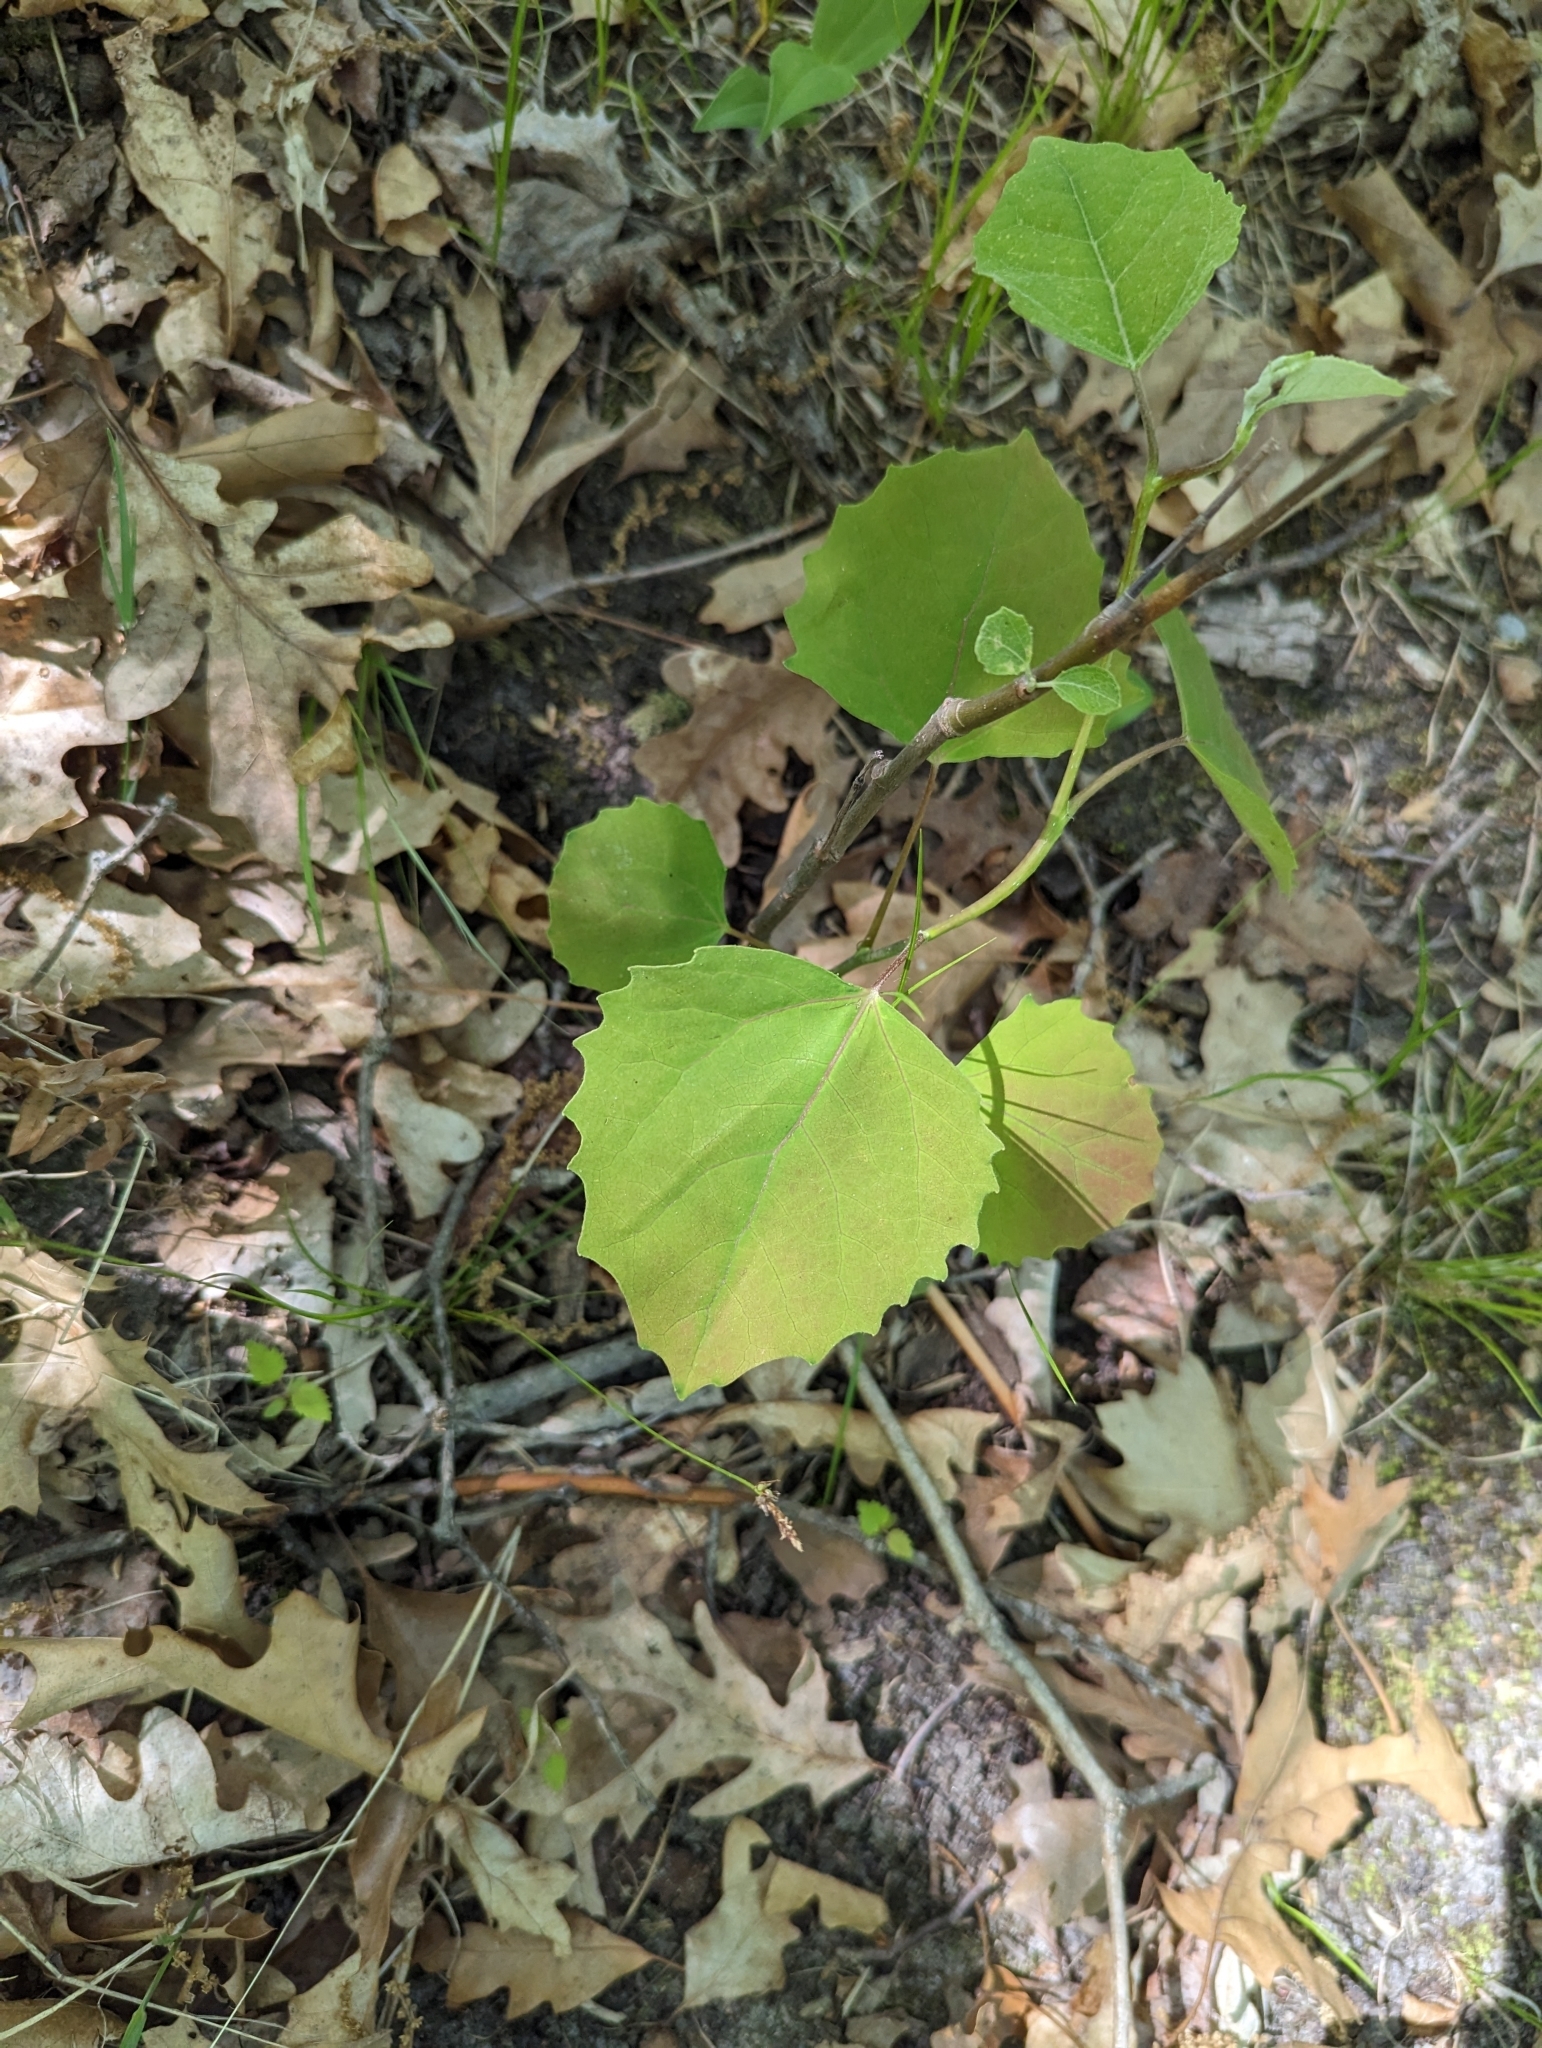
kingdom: Plantae
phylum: Tracheophyta
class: Magnoliopsida
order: Malpighiales
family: Salicaceae
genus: Populus
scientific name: Populus grandidentata
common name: Bigtooth aspen
